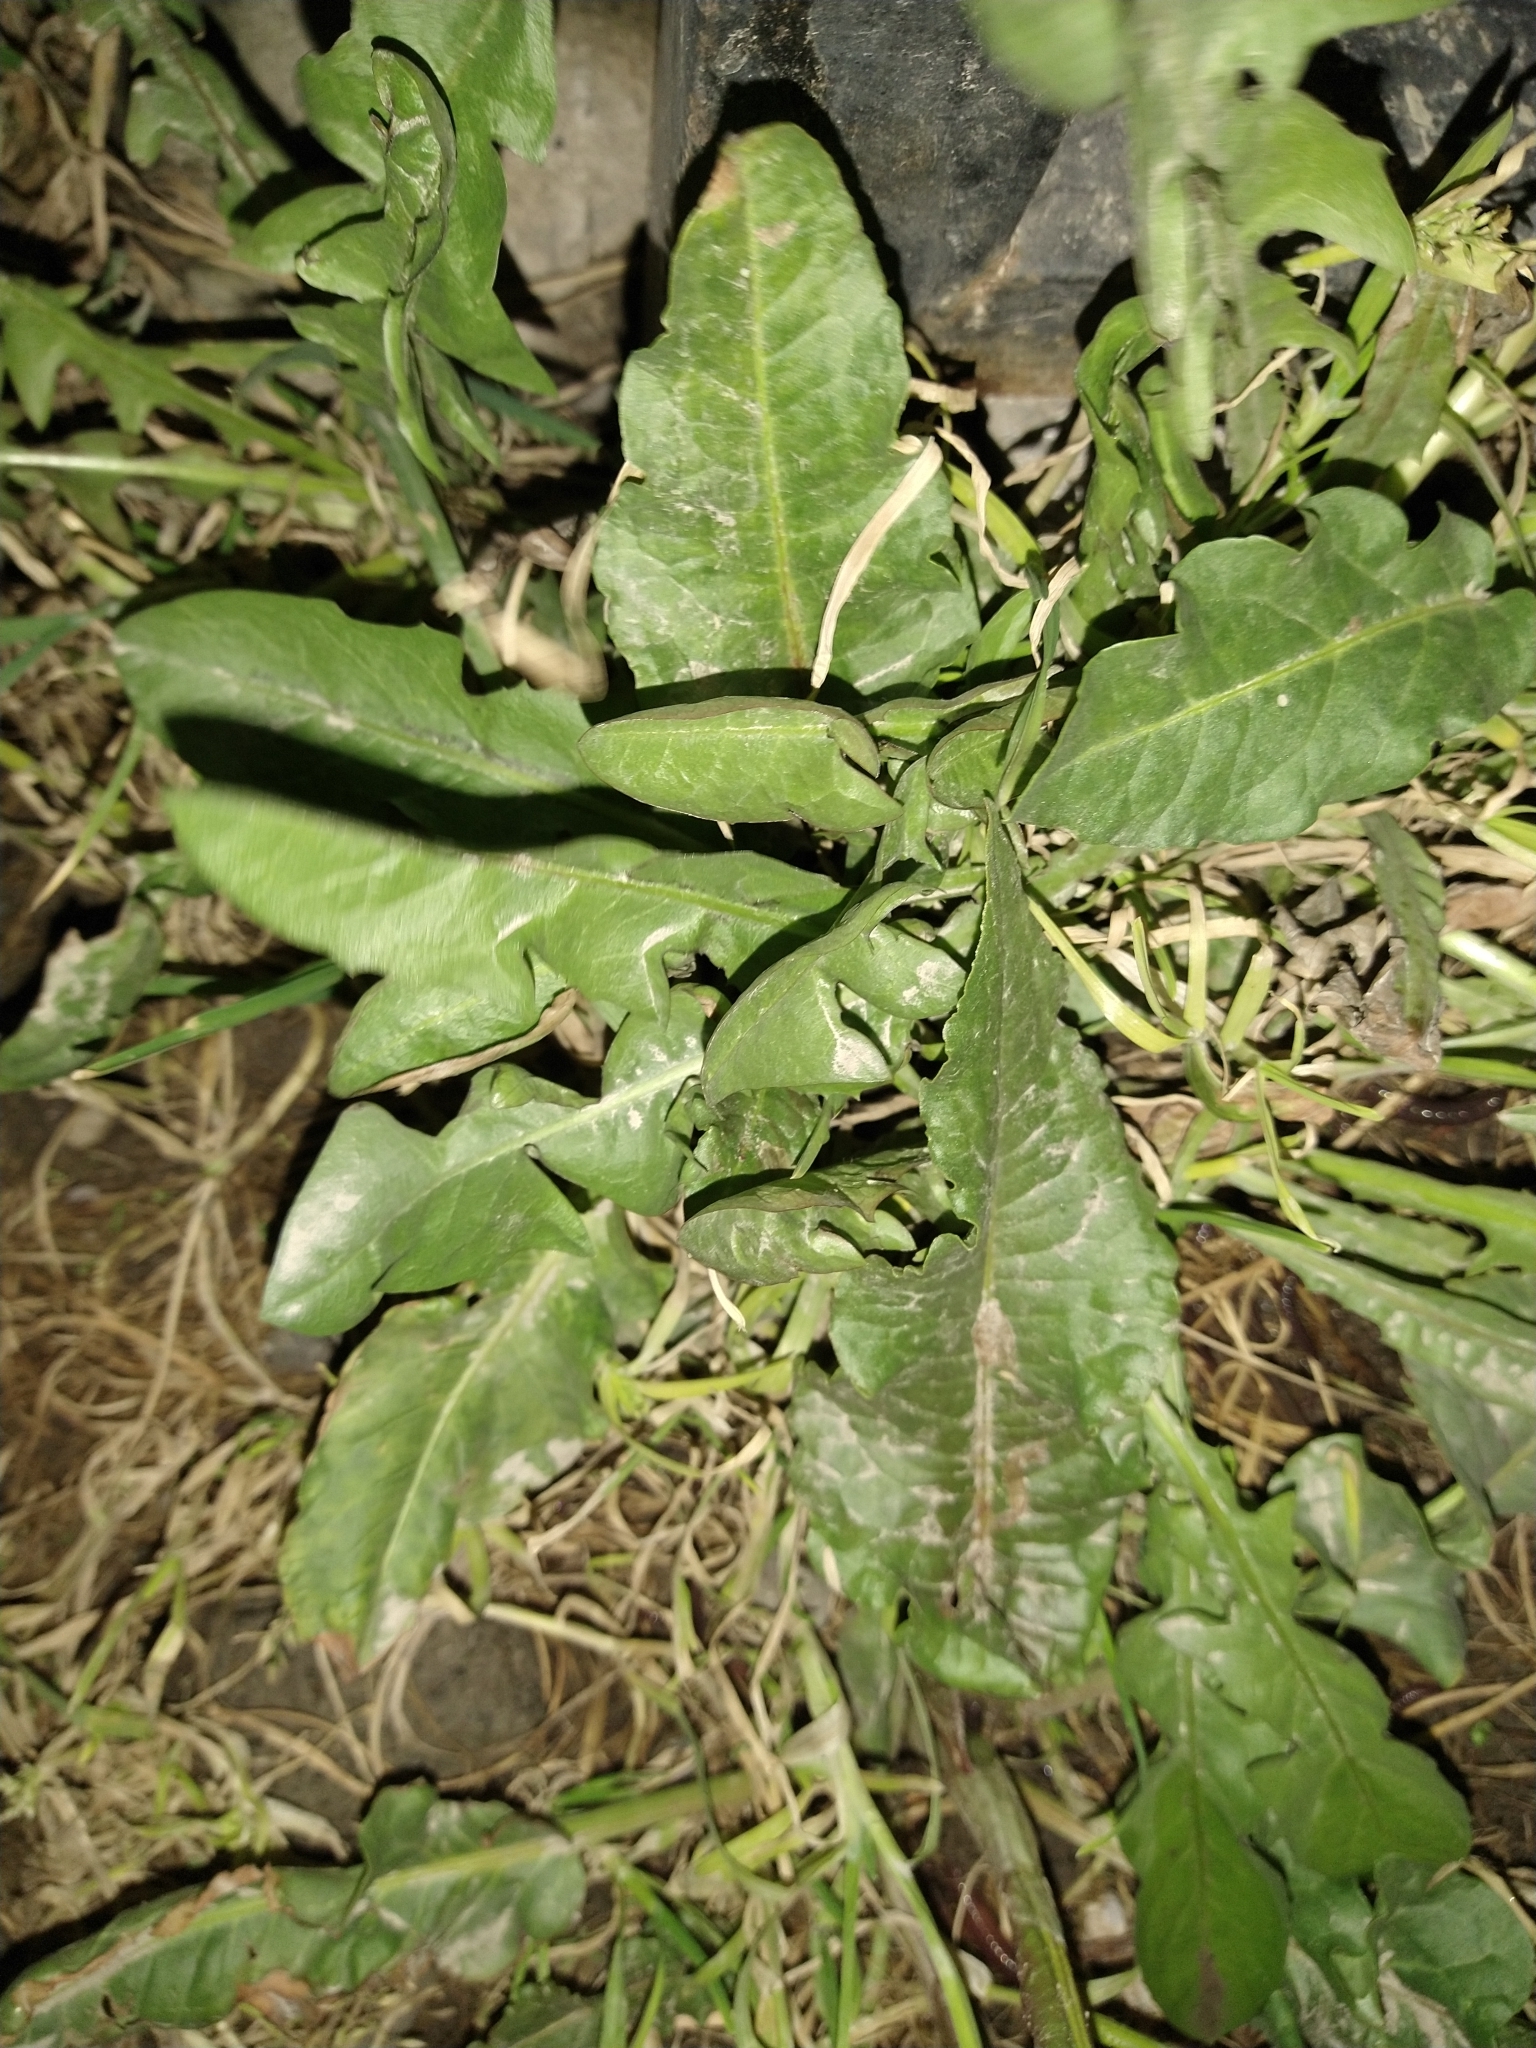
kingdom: Plantae
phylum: Tracheophyta
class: Magnoliopsida
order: Caryophyllales
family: Polygonaceae
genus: Rumex
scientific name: Rumex crispus
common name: Curled dock
